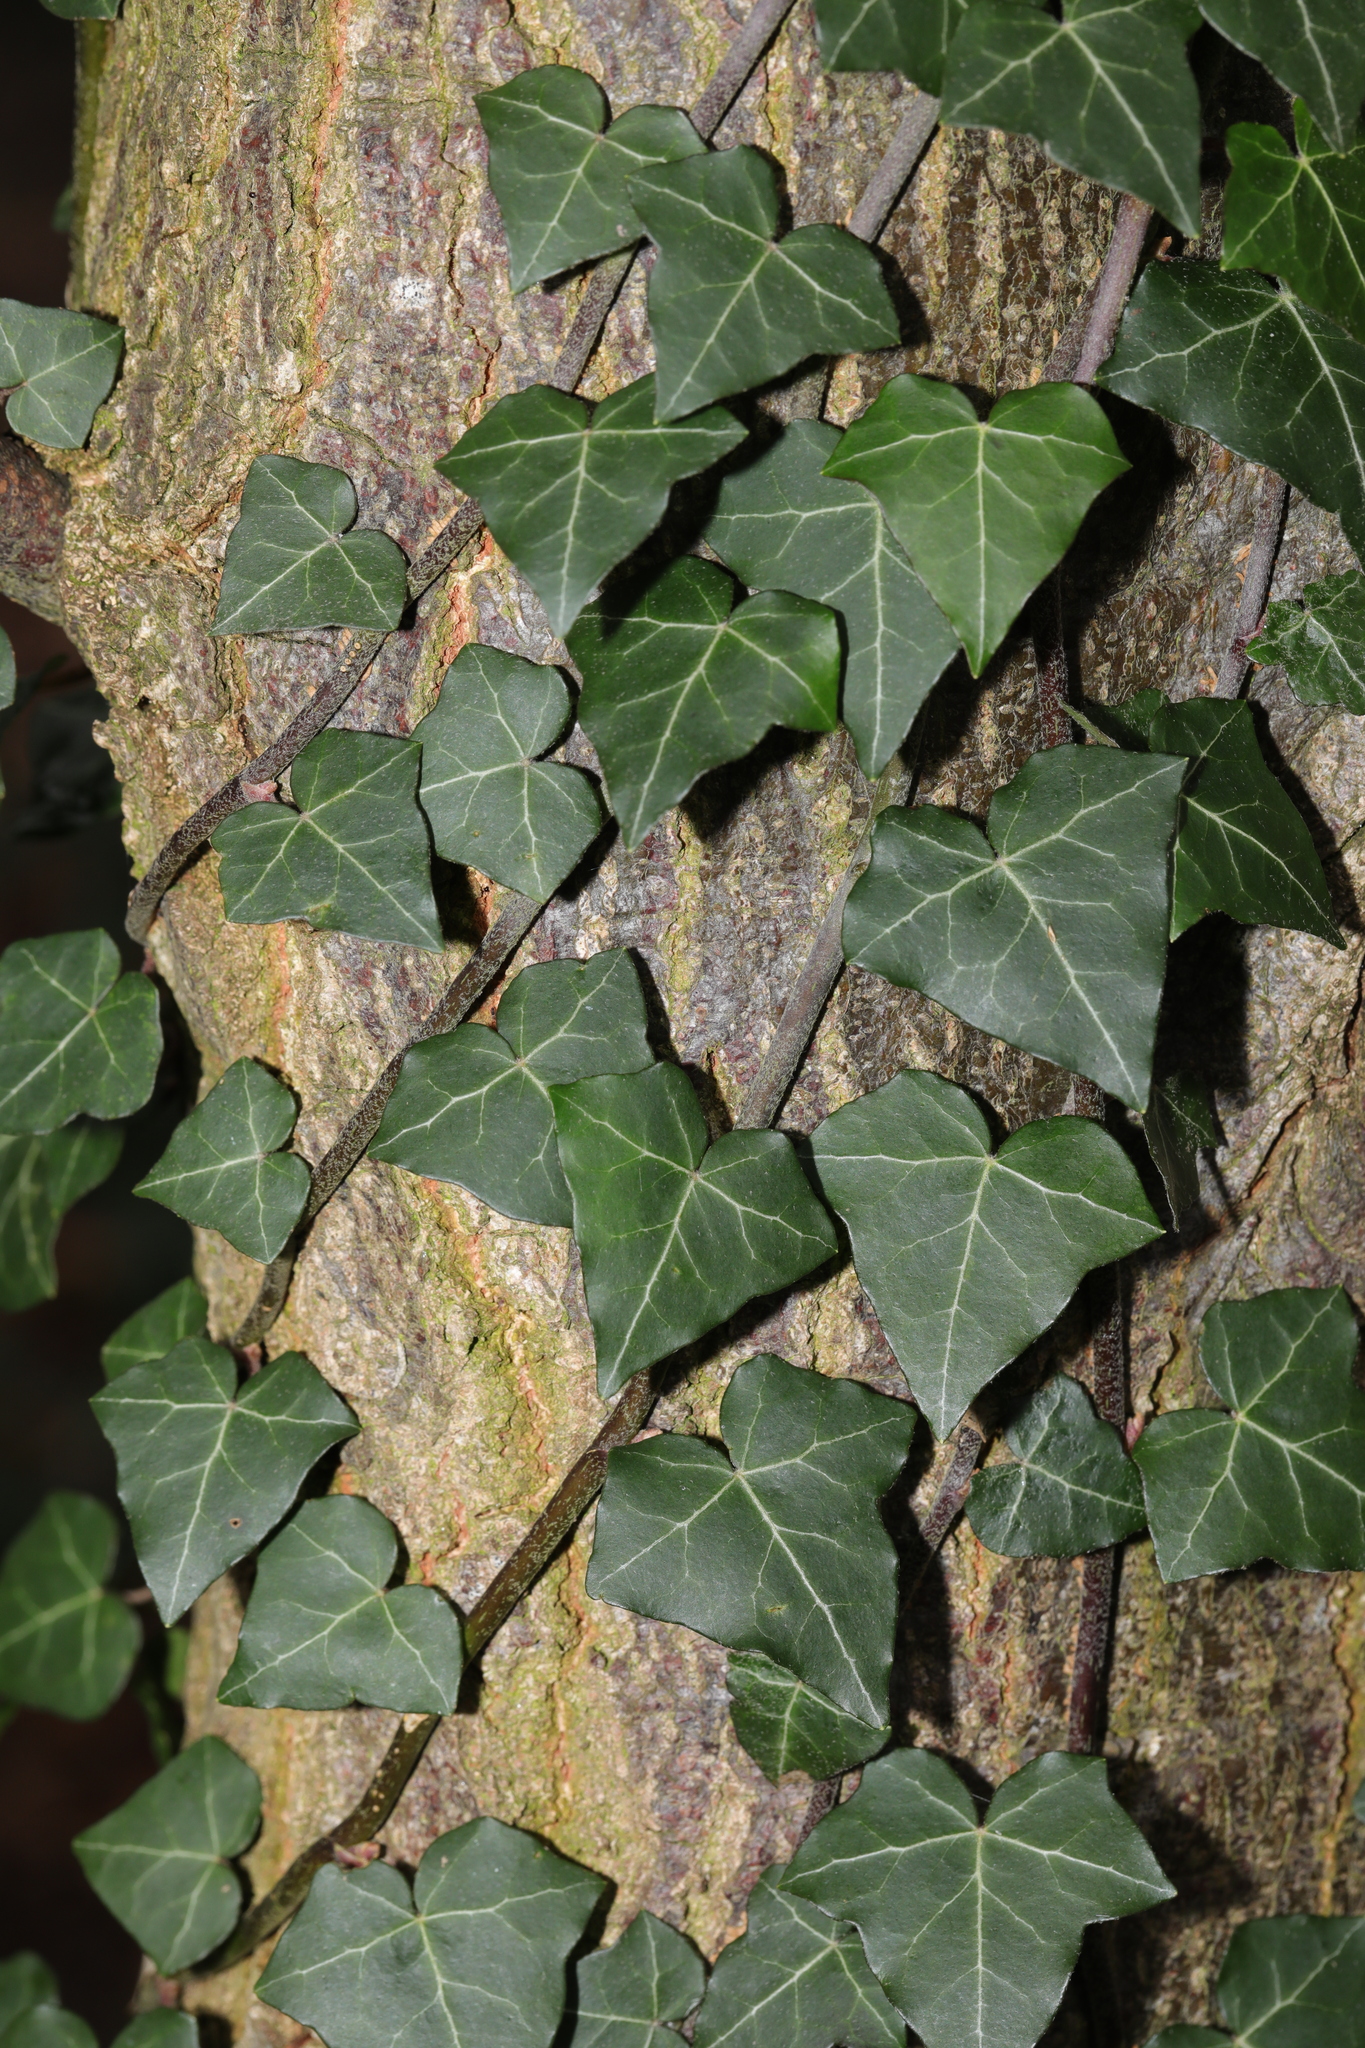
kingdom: Plantae
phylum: Tracheophyta
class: Magnoliopsida
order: Apiales
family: Araliaceae
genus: Hedera
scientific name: Hedera helix
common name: Ivy
